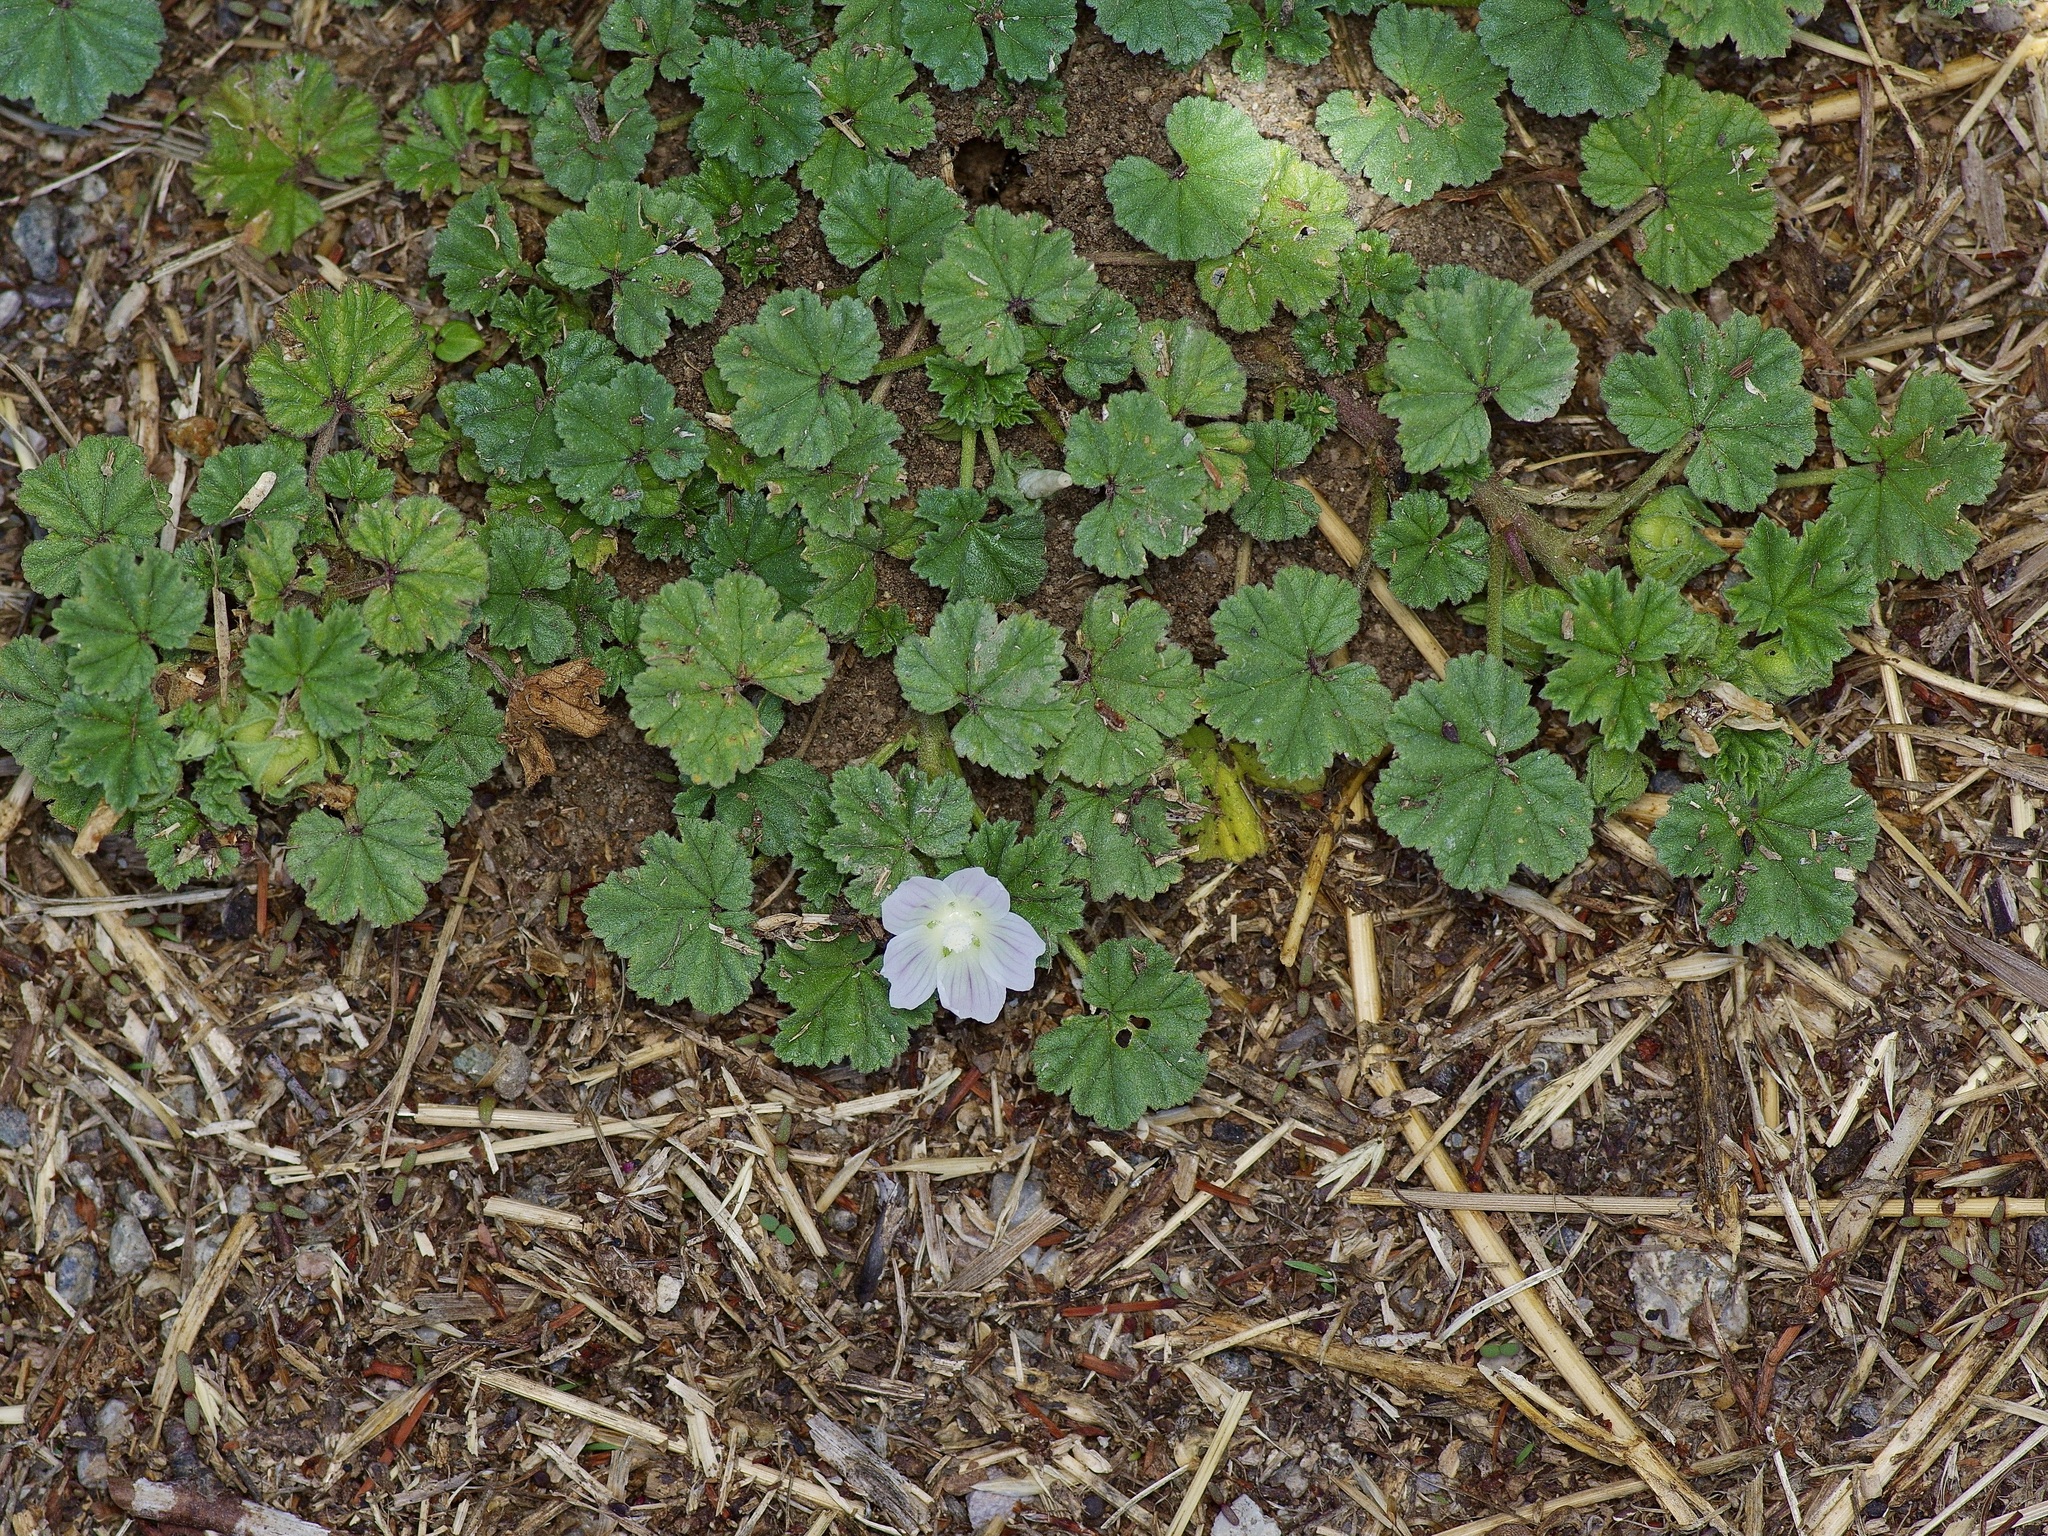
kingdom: Plantae
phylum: Tracheophyta
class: Magnoliopsida
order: Malvales
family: Malvaceae
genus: Malva
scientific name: Malva neglecta
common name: Common mallow
